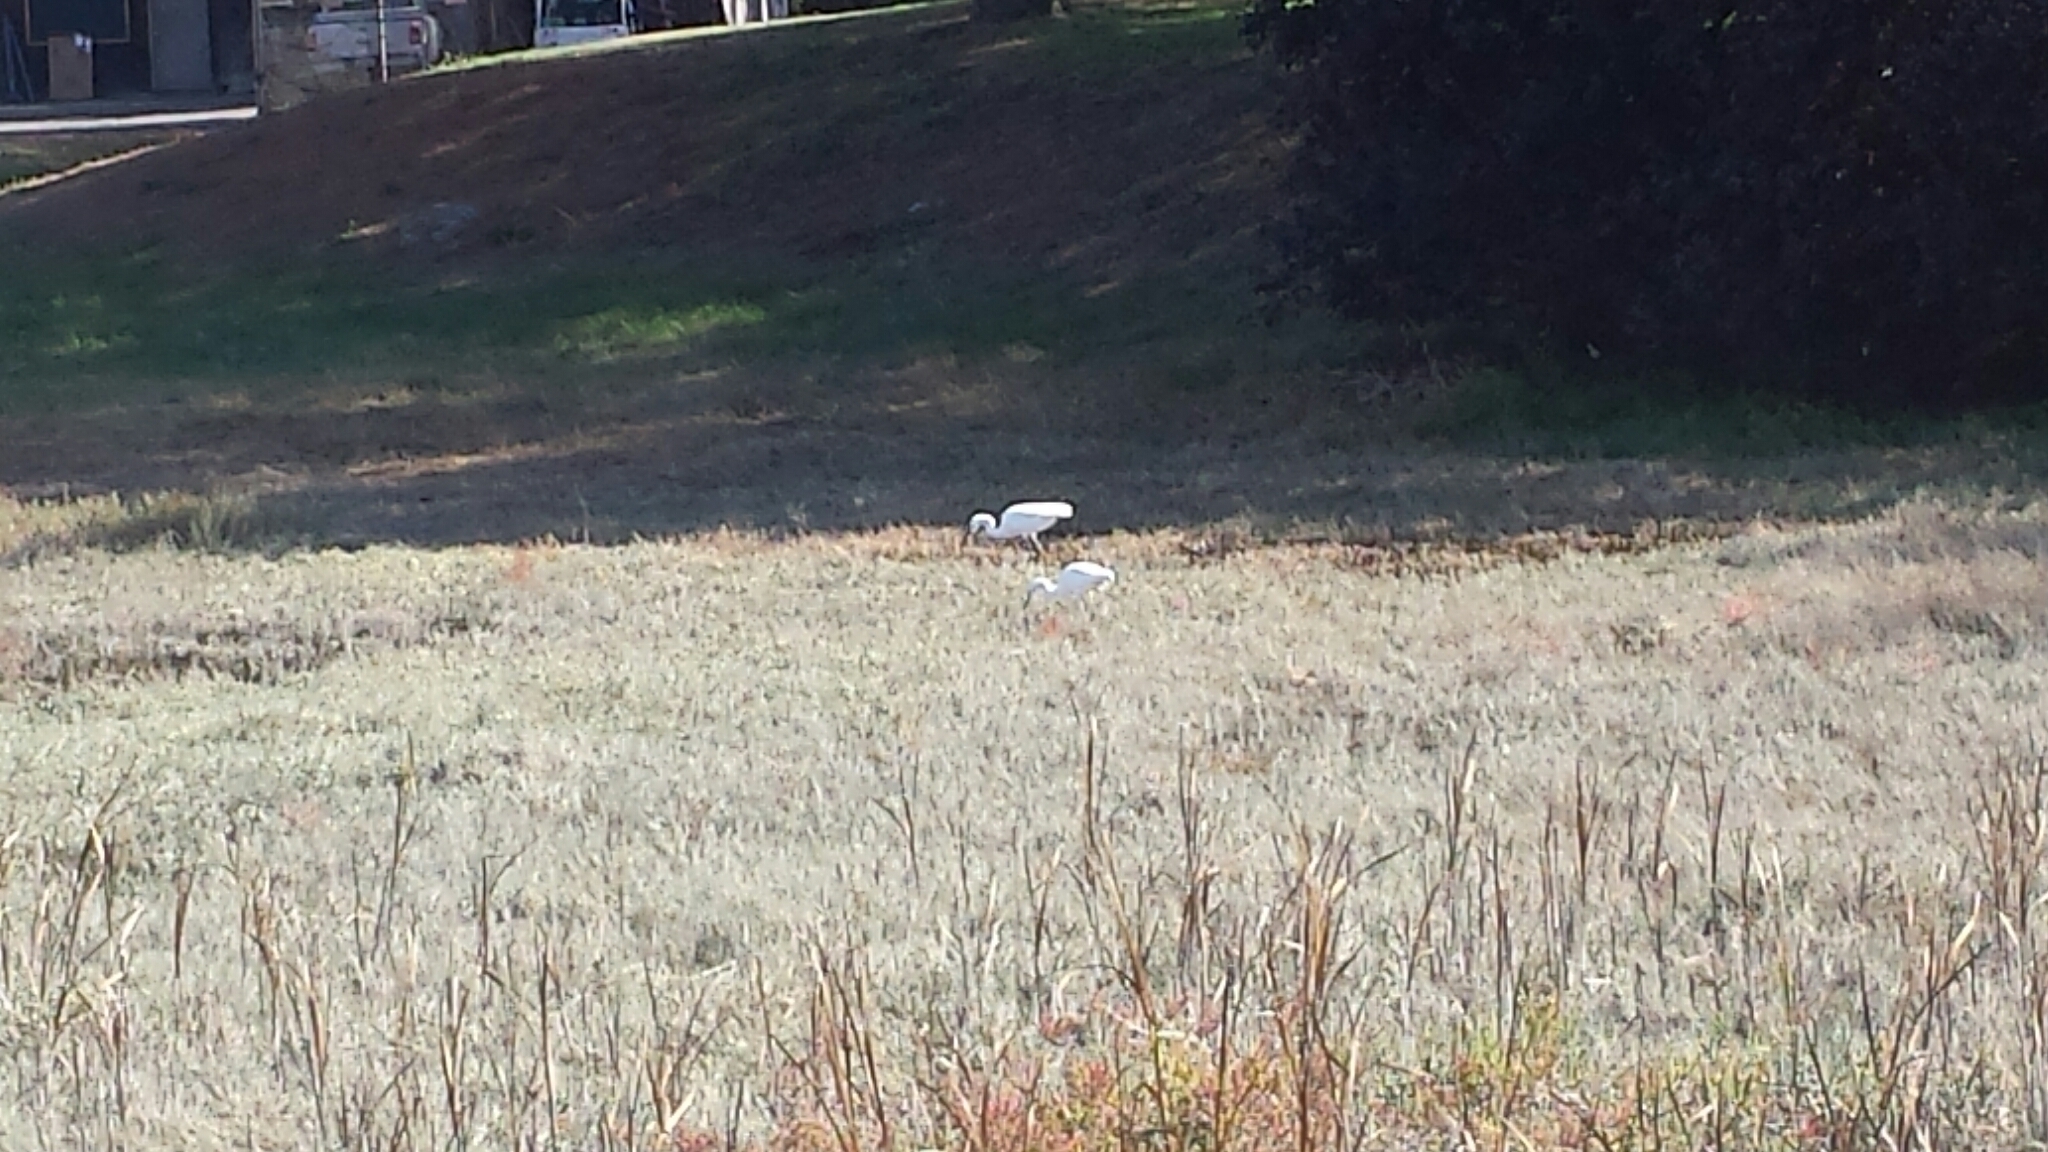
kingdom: Animalia
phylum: Chordata
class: Aves
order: Pelecaniformes
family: Ardeidae
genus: Egretta
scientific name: Egretta thula
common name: Snowy egret
